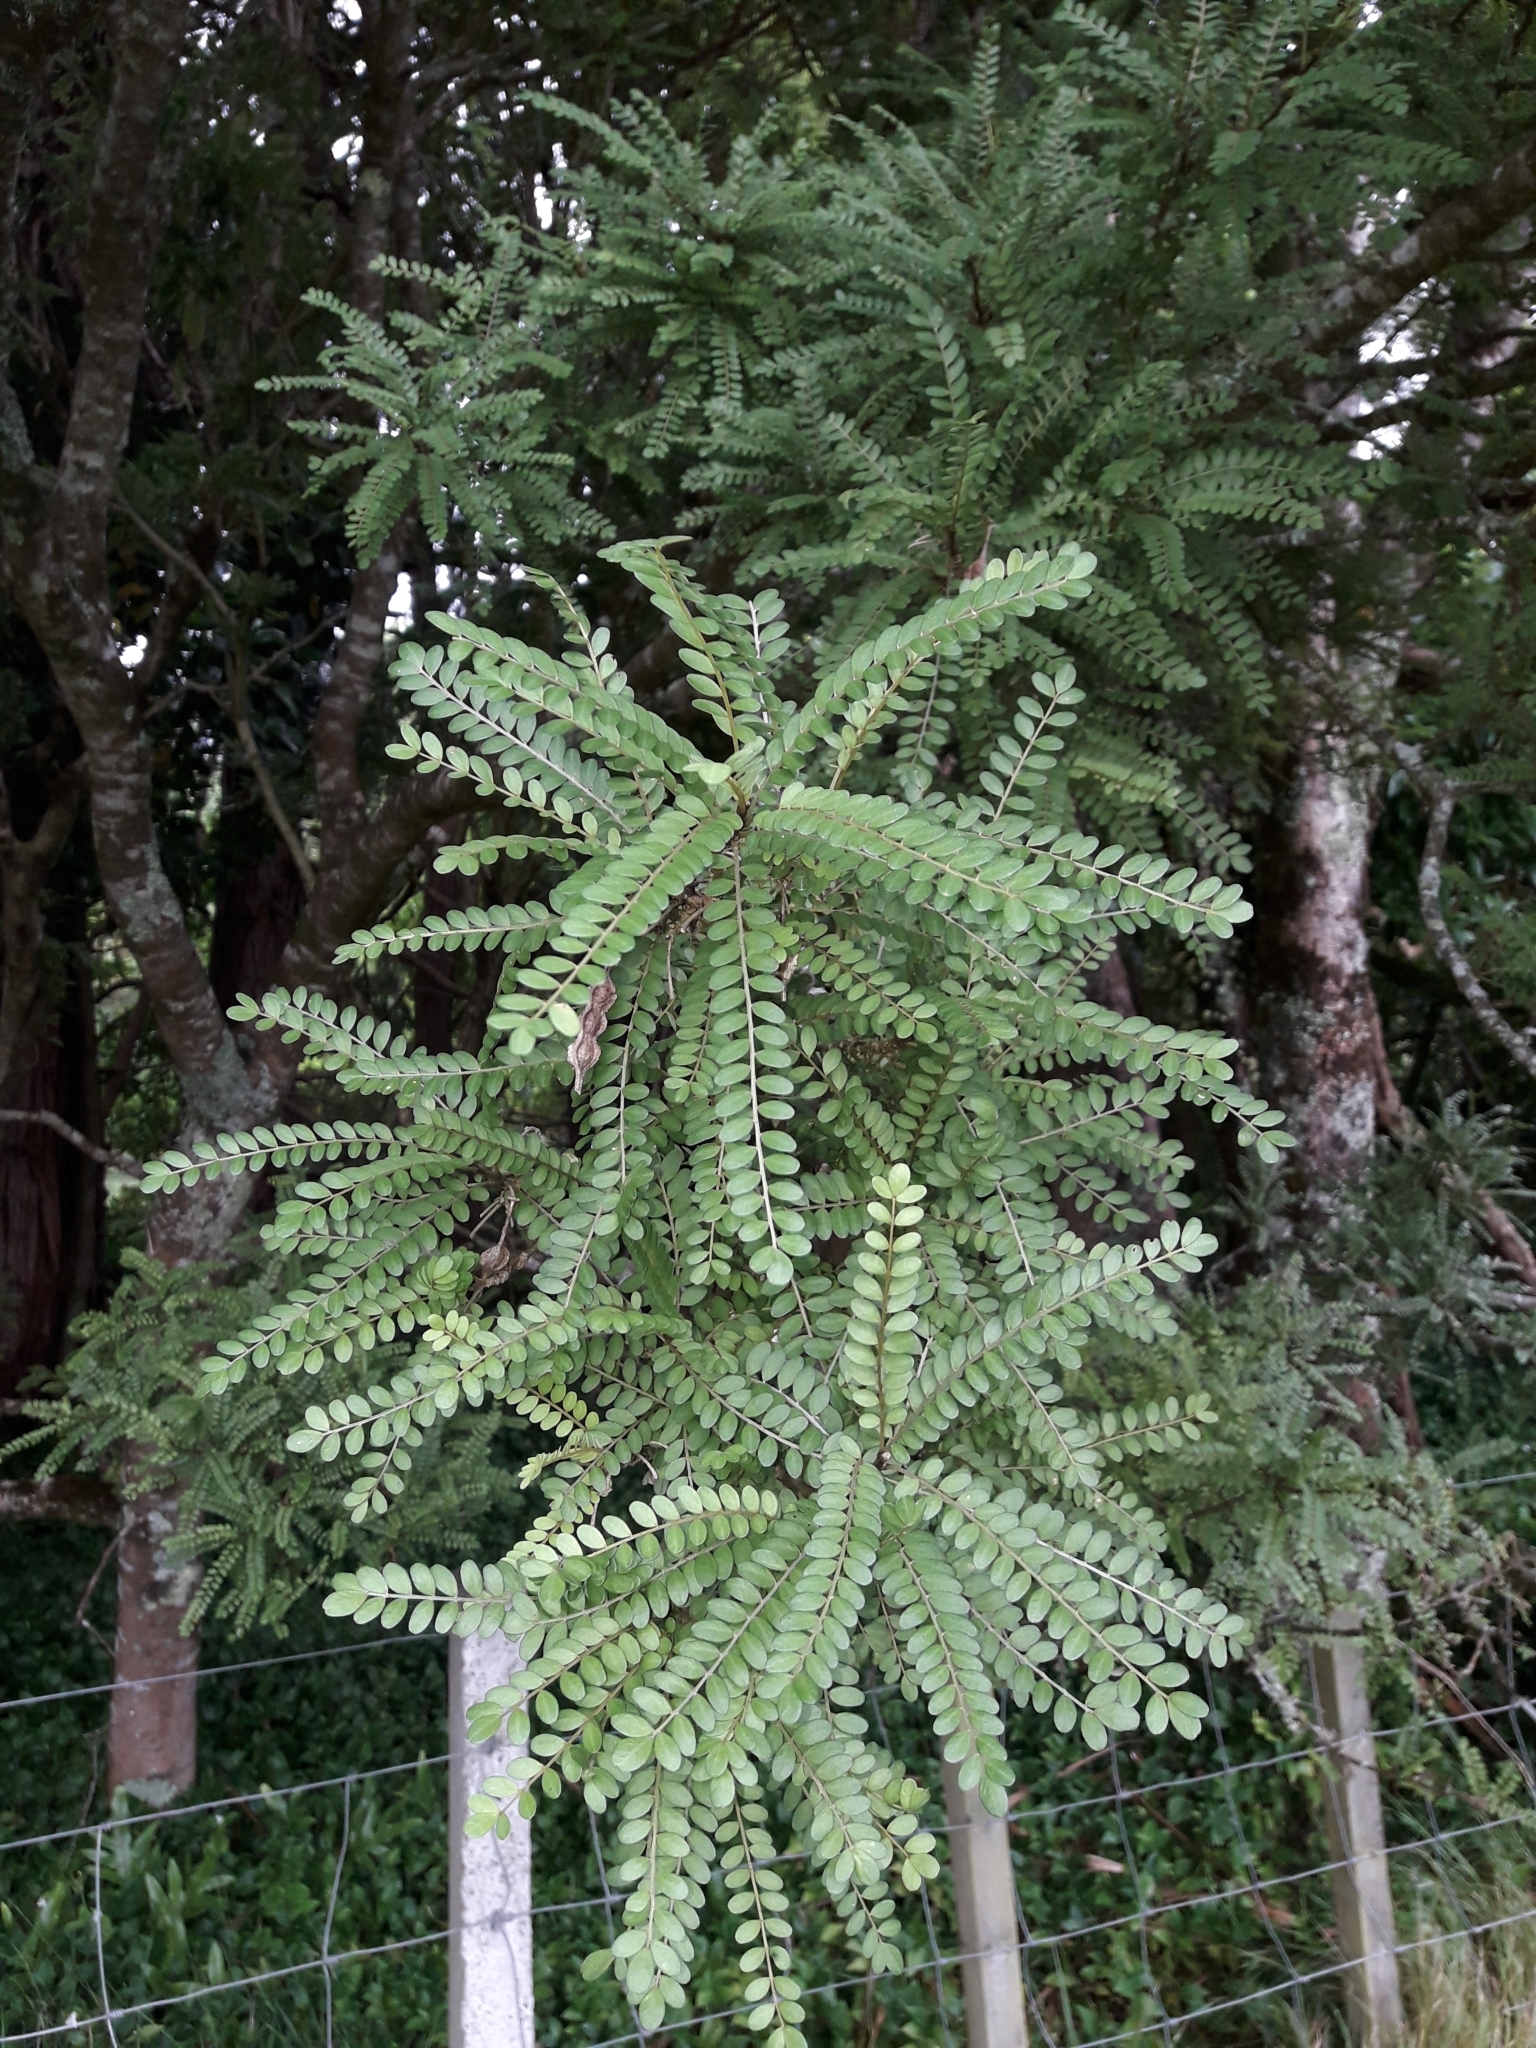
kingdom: Plantae
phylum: Tracheophyta
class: Magnoliopsida
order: Fabales
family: Fabaceae
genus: Sophora
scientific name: Sophora microphylla
